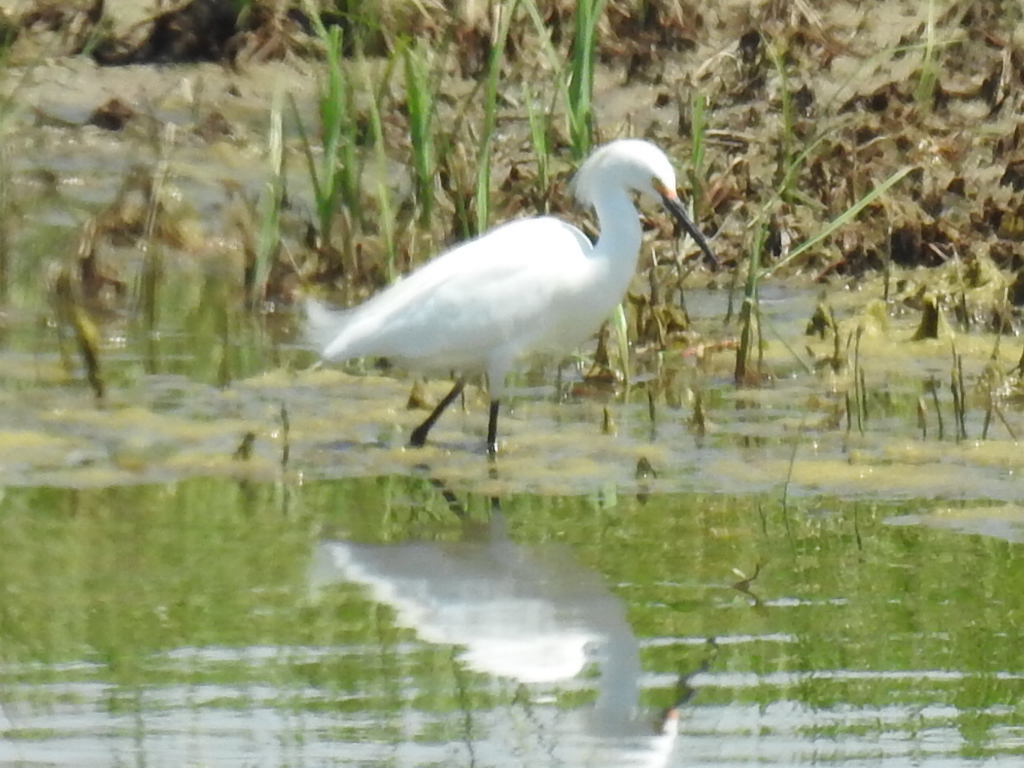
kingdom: Animalia
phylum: Chordata
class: Aves
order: Pelecaniformes
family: Ardeidae
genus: Egretta
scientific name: Egretta thula
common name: Snowy egret
